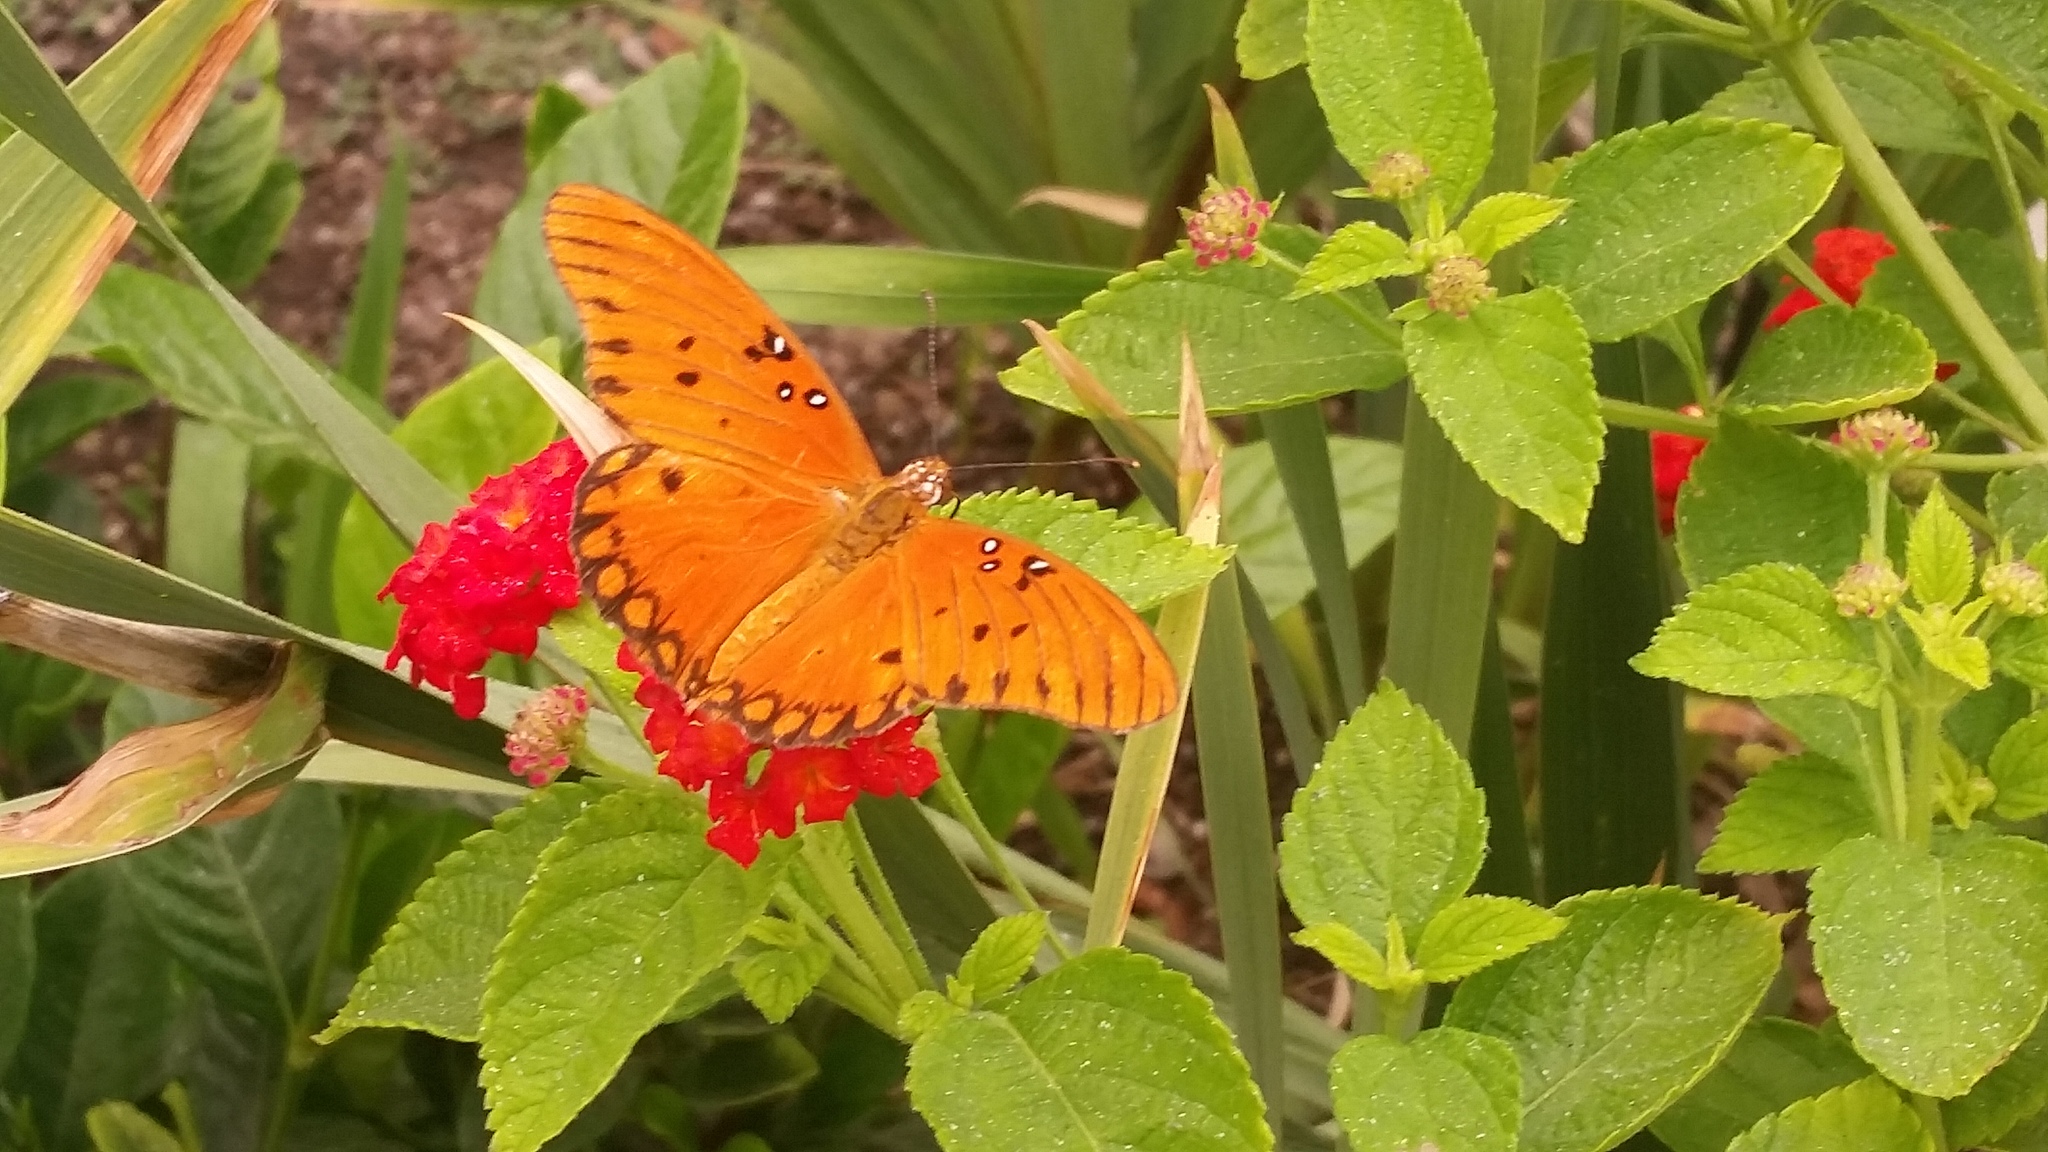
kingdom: Animalia
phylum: Arthropoda
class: Insecta
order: Lepidoptera
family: Nymphalidae
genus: Dione
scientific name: Dione vanillae
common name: Gulf fritillary
